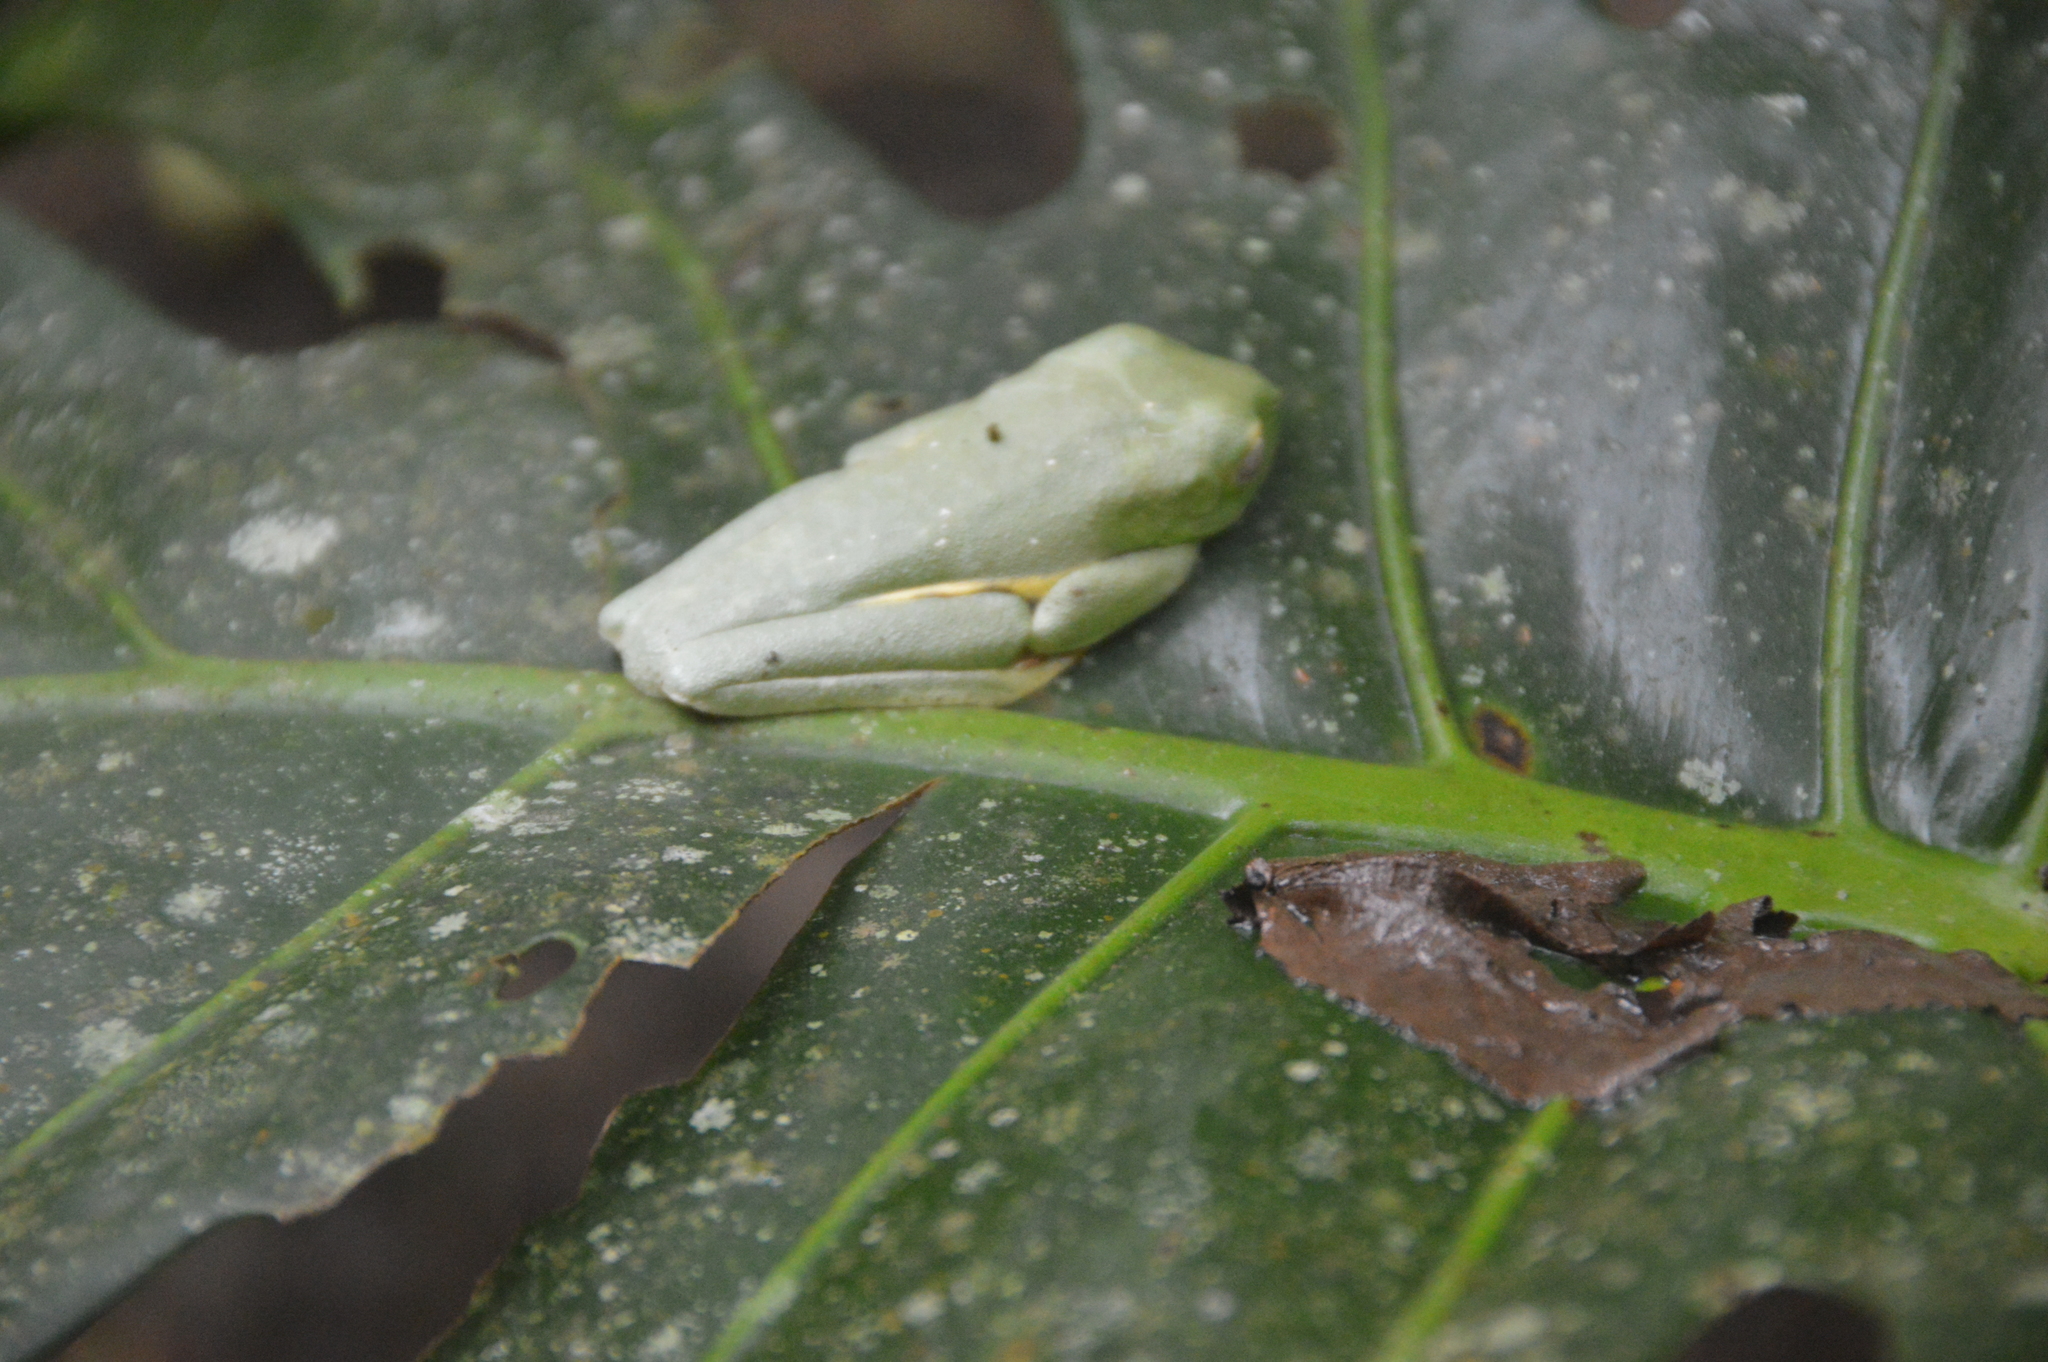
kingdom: Animalia
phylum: Chordata
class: Amphibia
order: Anura
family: Phyllomedusidae
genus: Agalychnis
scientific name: Agalychnis callidryas
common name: Red-eyed treefrog
